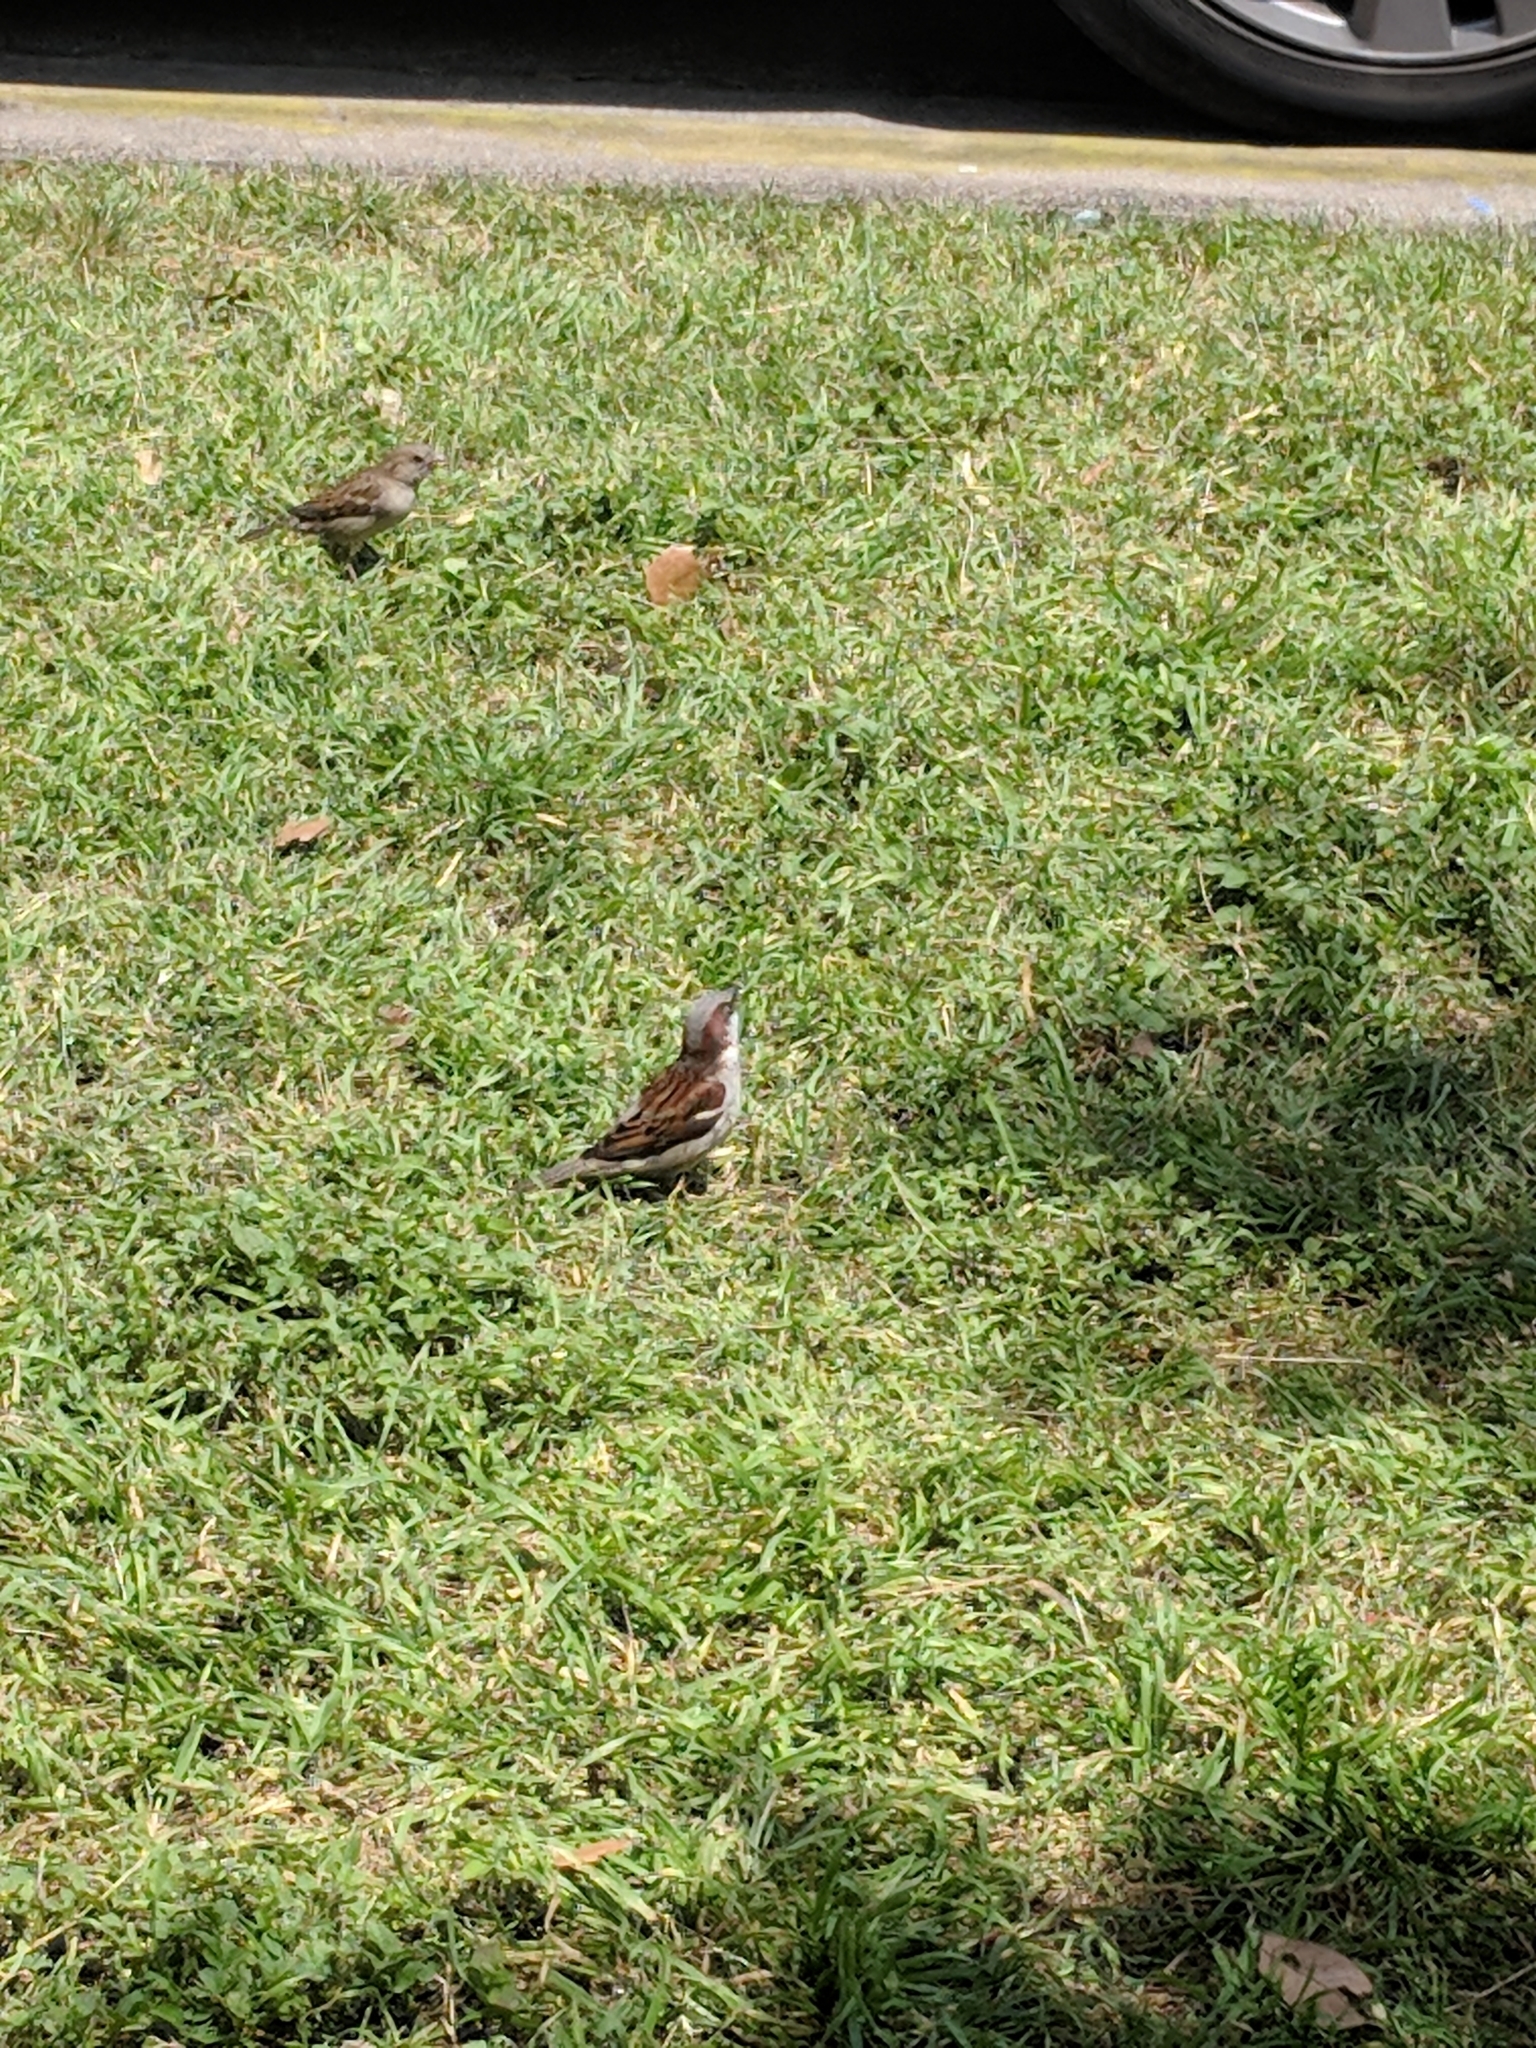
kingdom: Animalia
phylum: Chordata
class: Aves
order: Passeriformes
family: Passeridae
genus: Passer
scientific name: Passer domesticus
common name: House sparrow
